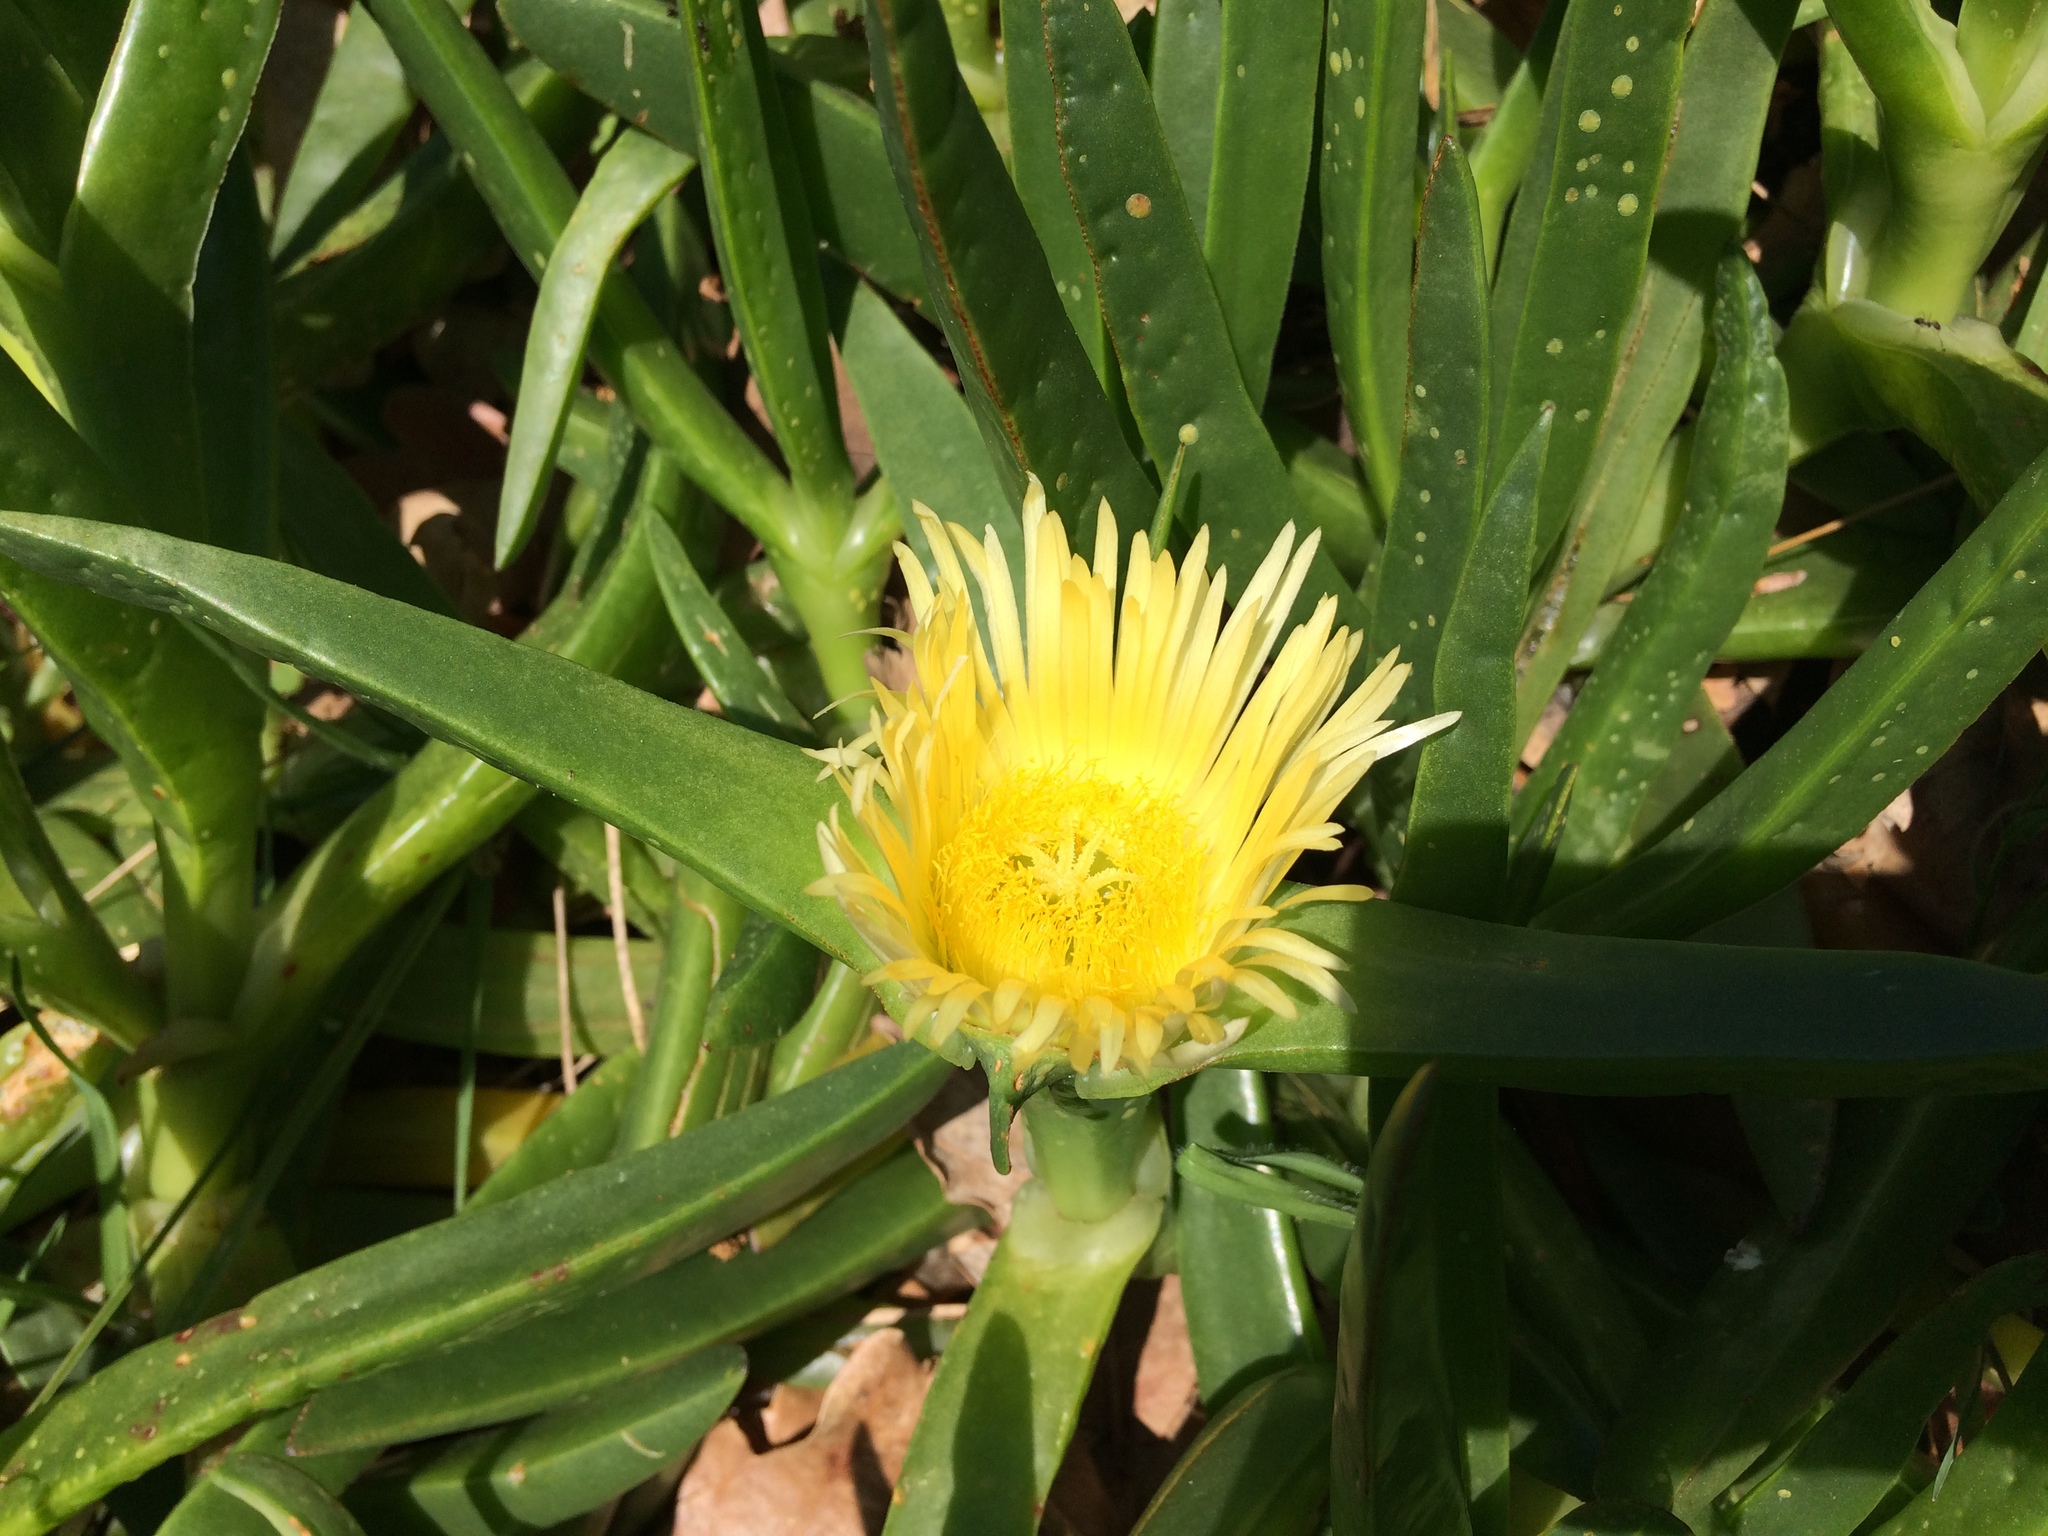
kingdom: Plantae
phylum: Tracheophyta
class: Magnoliopsida
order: Caryophyllales
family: Aizoaceae
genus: Carpobrotus
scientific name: Carpobrotus edulis
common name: Hottentot-fig
